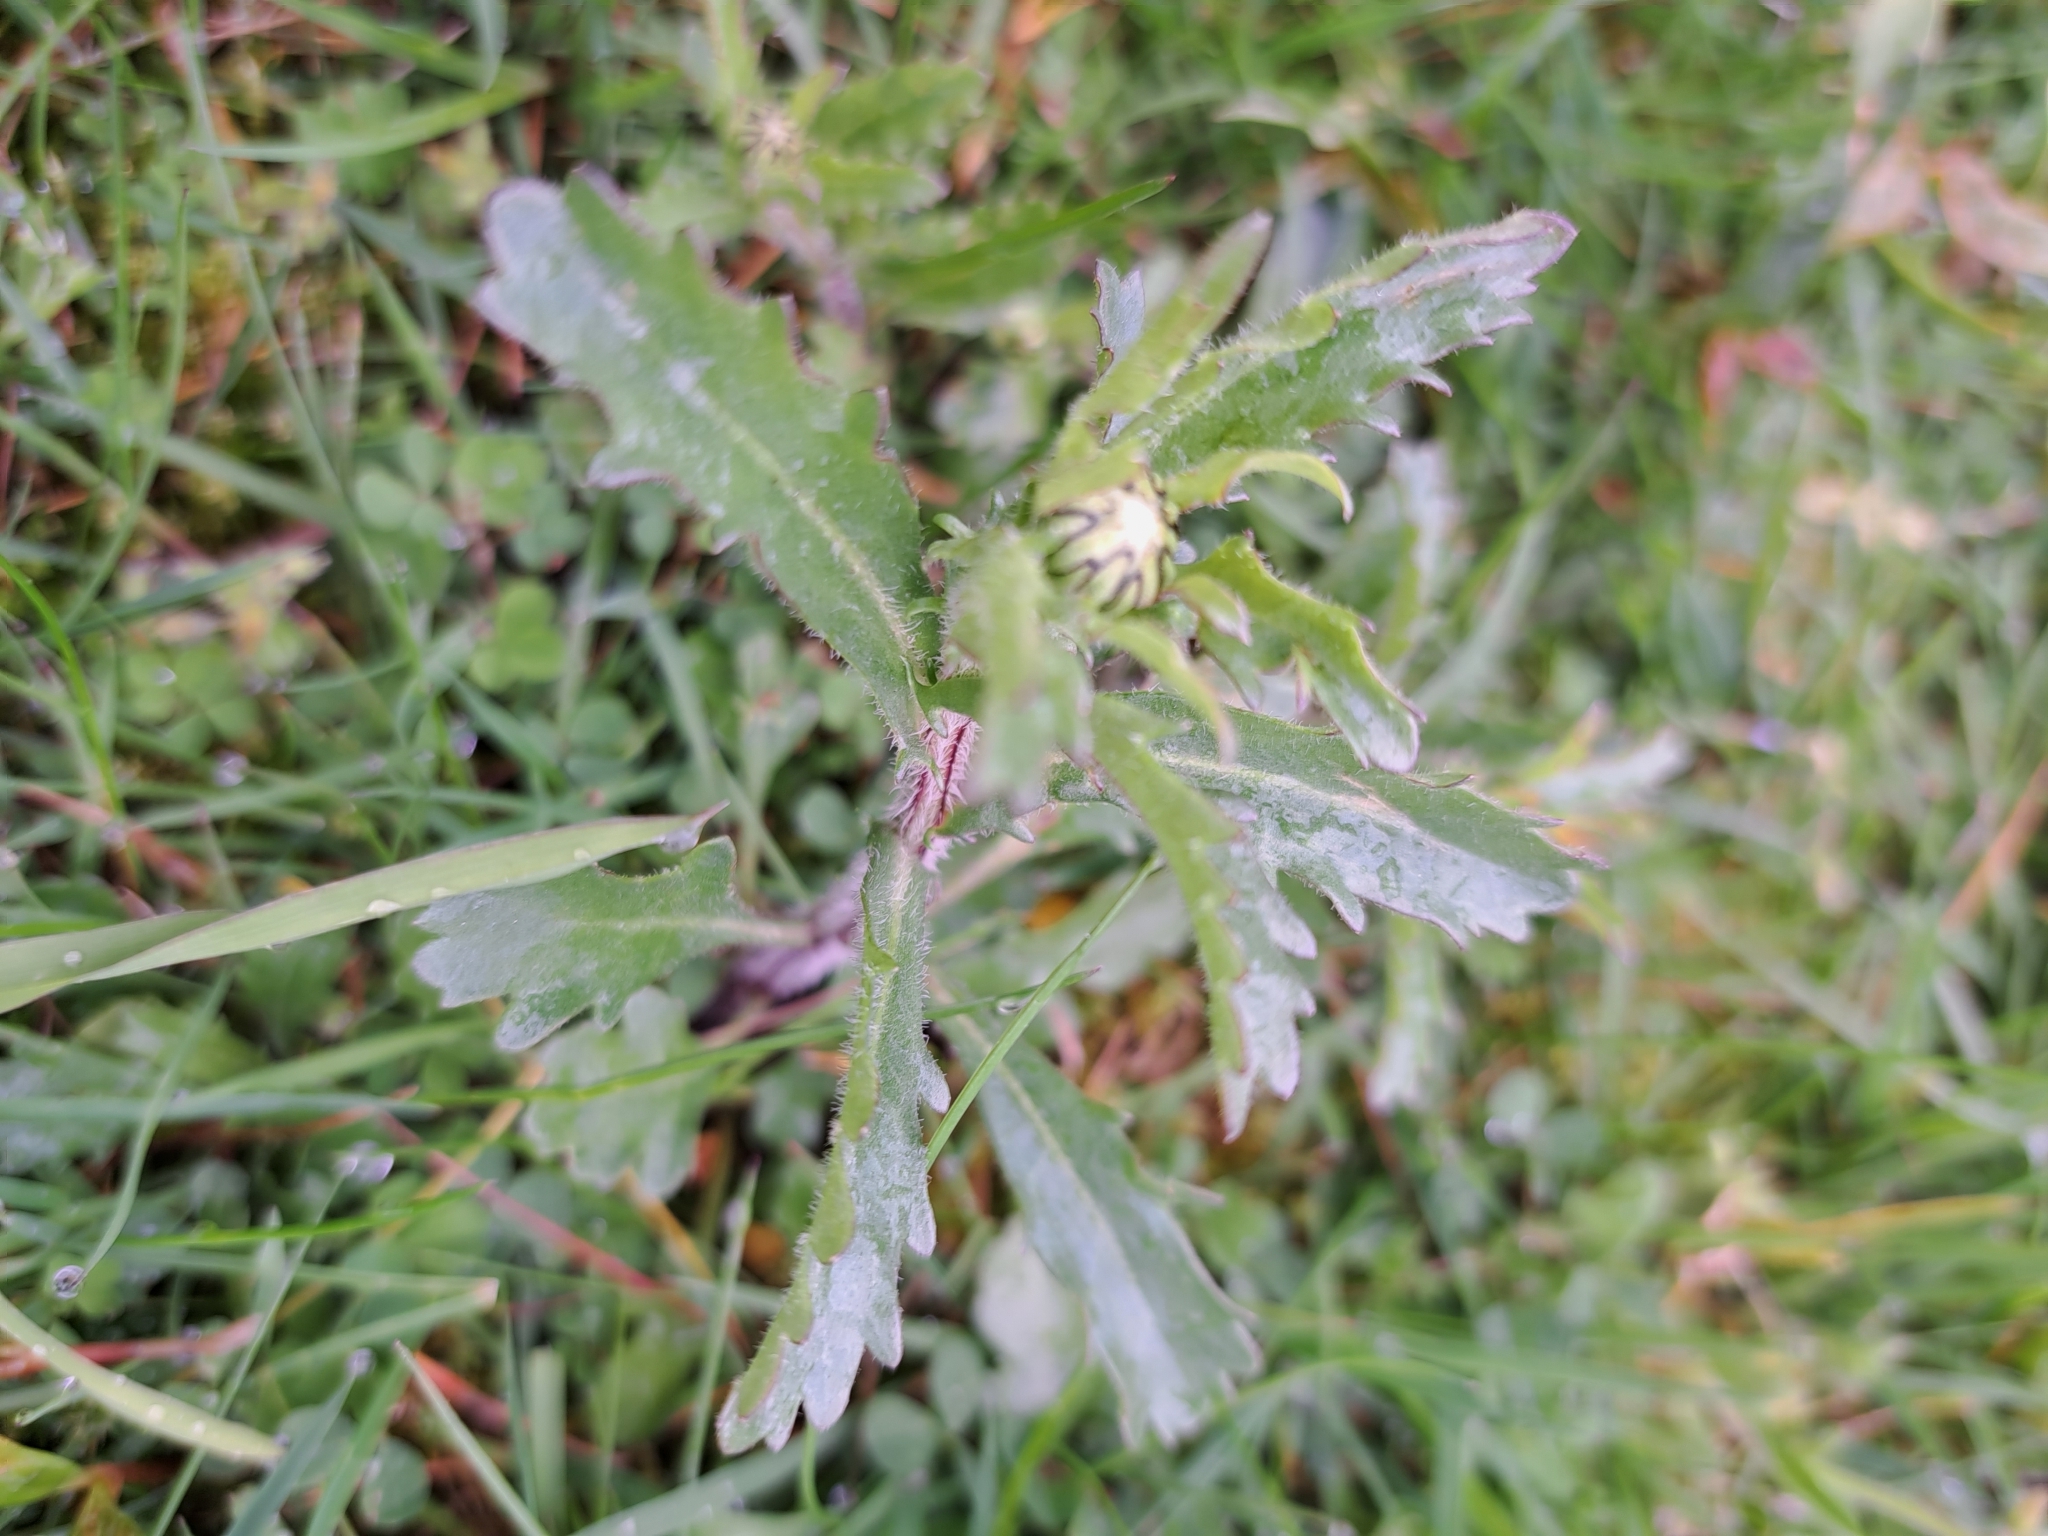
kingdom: Plantae
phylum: Tracheophyta
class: Magnoliopsida
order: Asterales
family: Asteraceae
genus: Leucanthemum
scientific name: Leucanthemum vulgare
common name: Oxeye daisy
